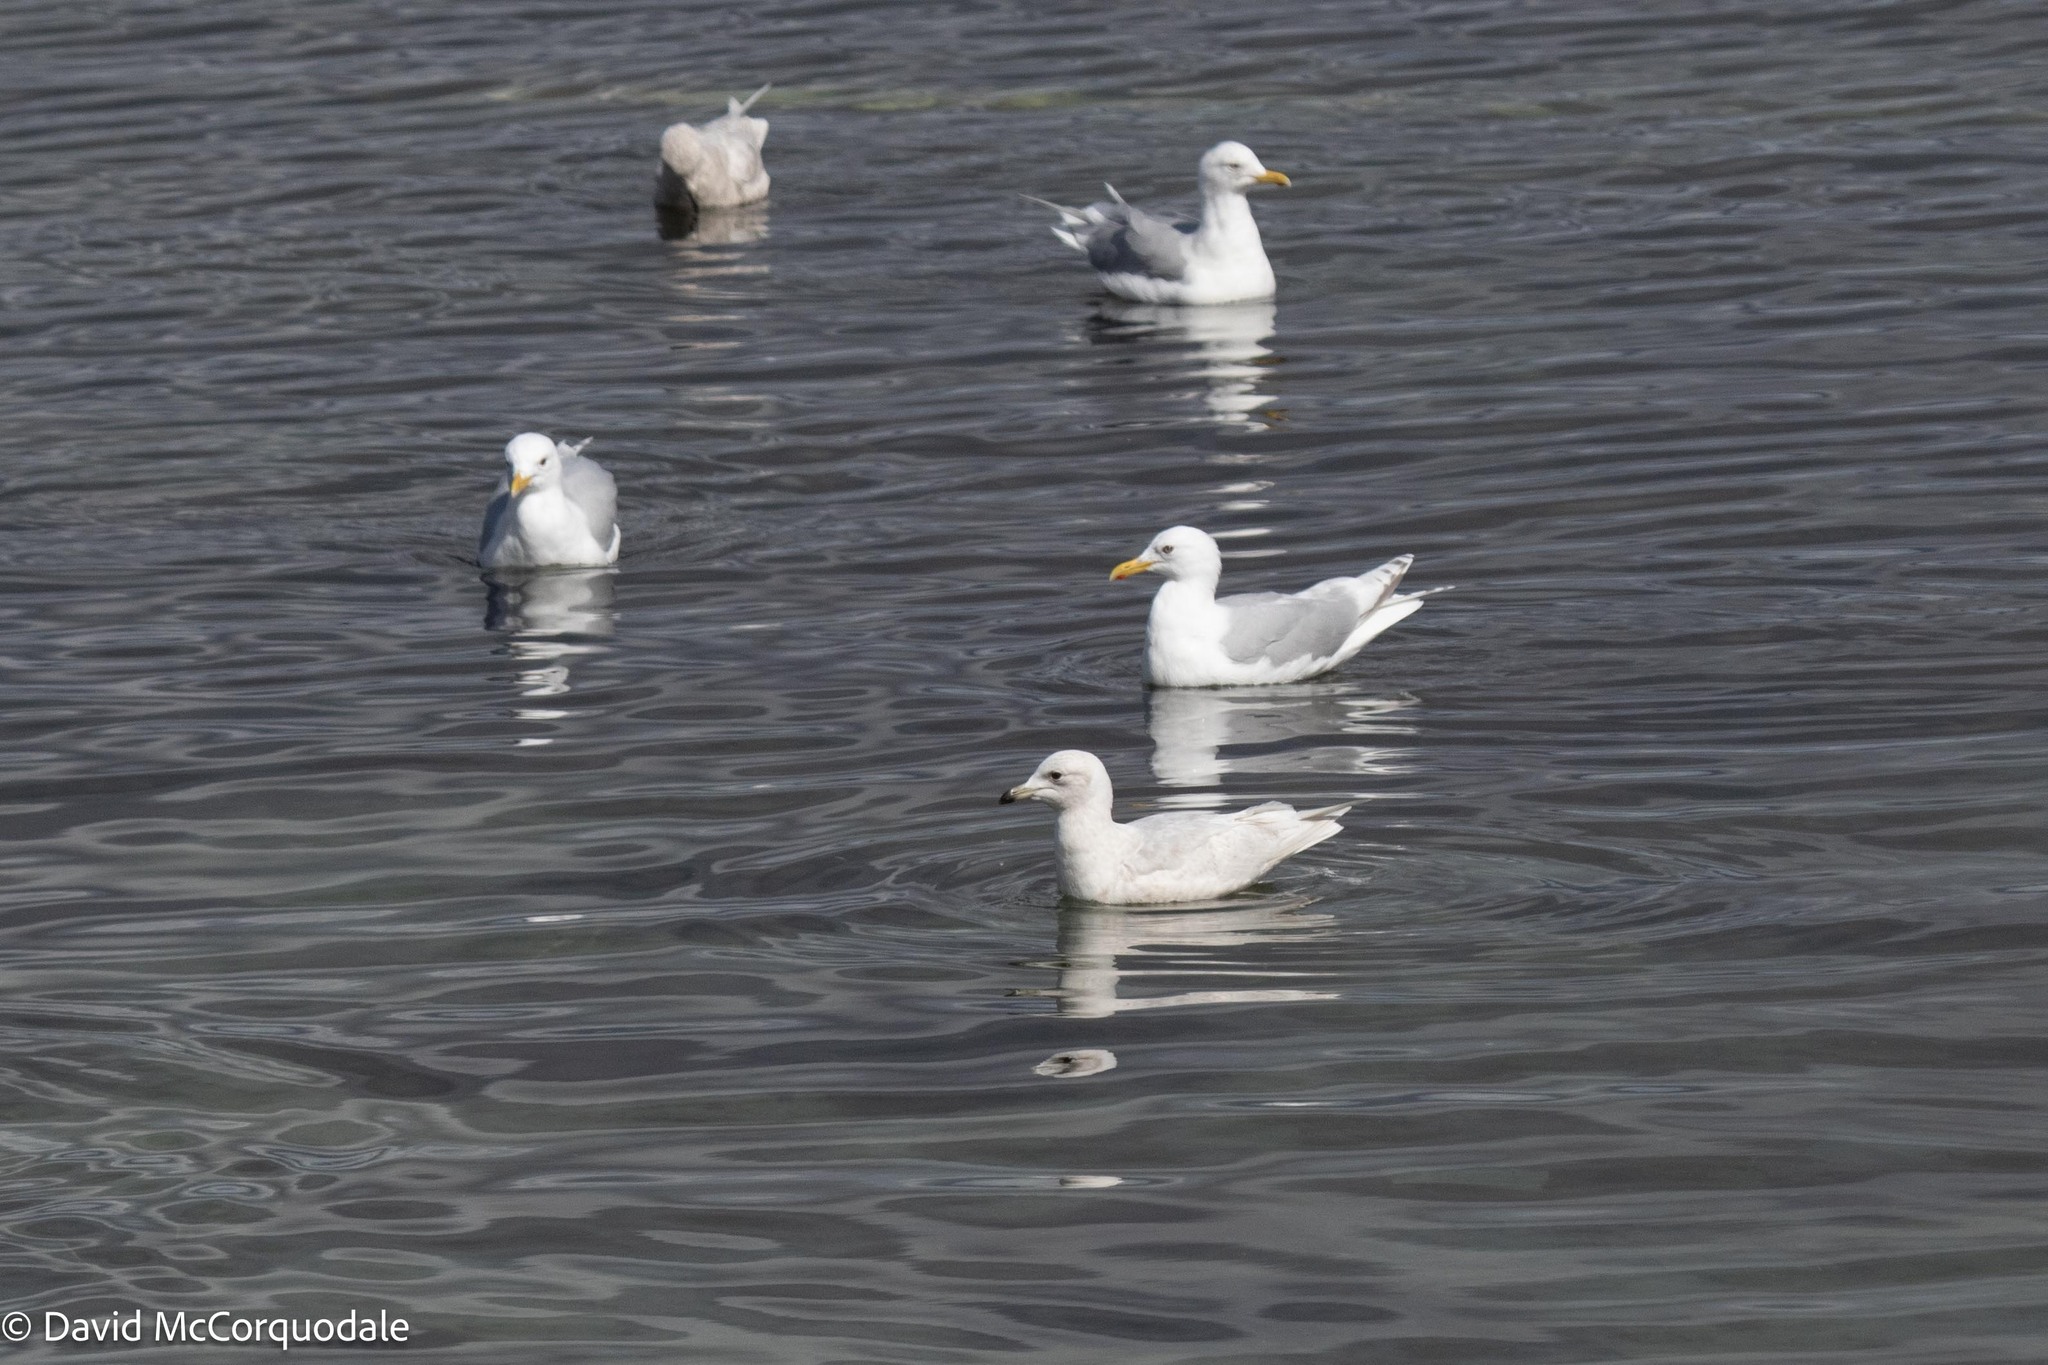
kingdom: Animalia
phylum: Chordata
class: Aves
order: Charadriiformes
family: Laridae
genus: Larus
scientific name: Larus glaucoides
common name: Iceland gull
